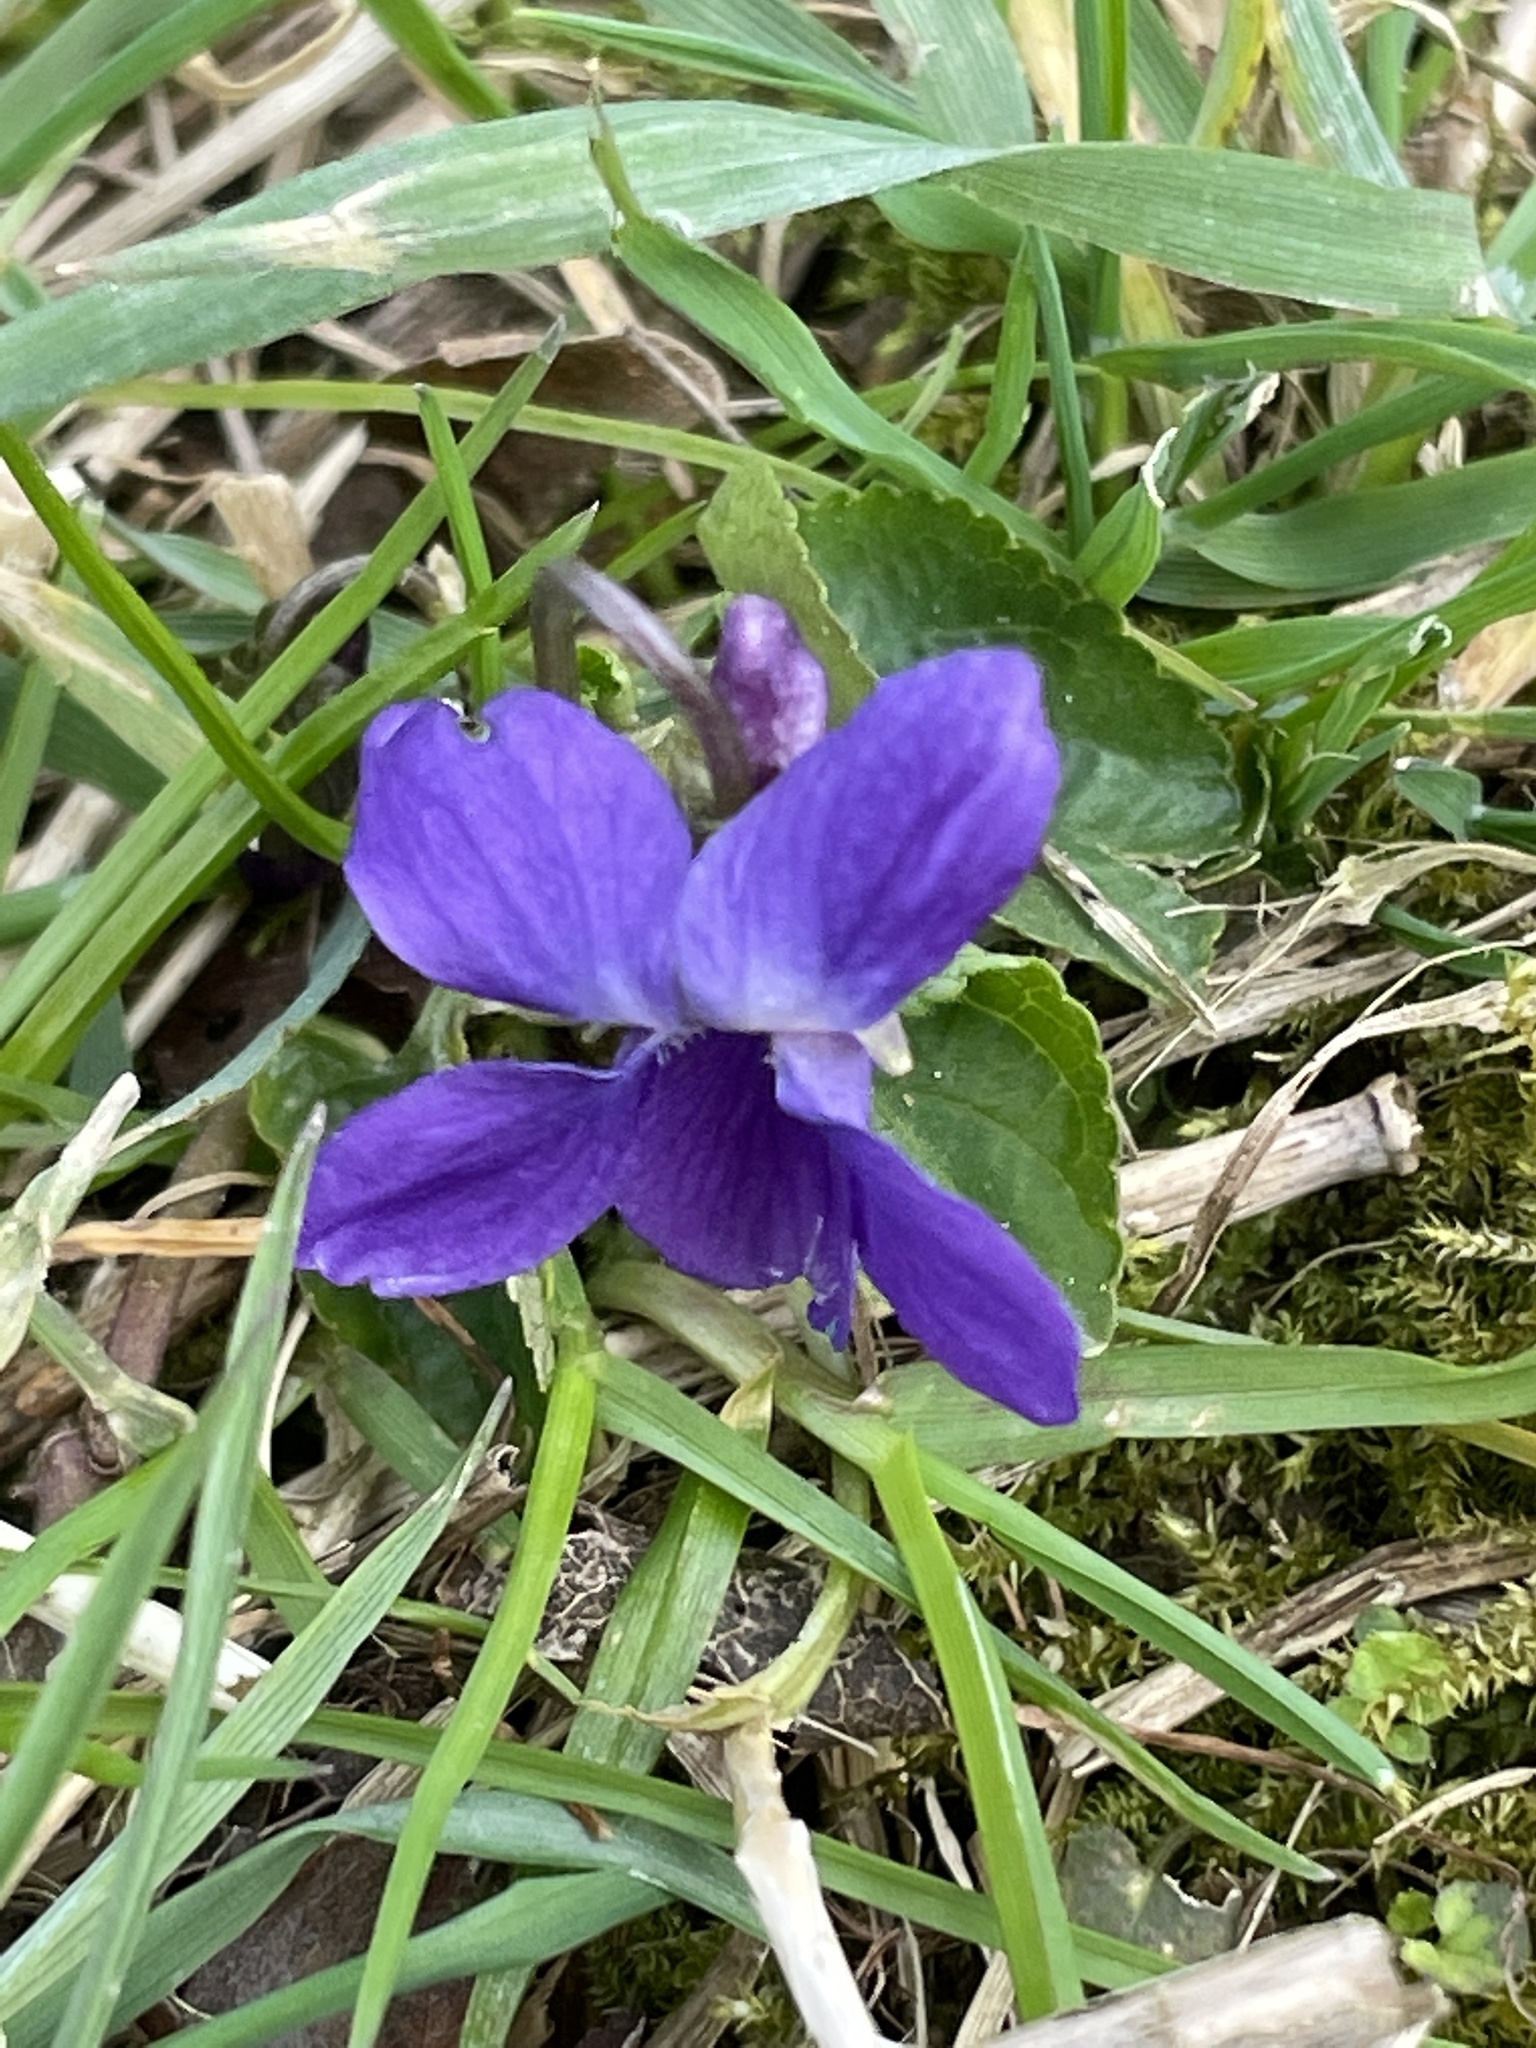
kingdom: Plantae
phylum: Tracheophyta
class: Magnoliopsida
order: Malpighiales
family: Violaceae
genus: Viola
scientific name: Viola odorata
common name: Sweet violet
